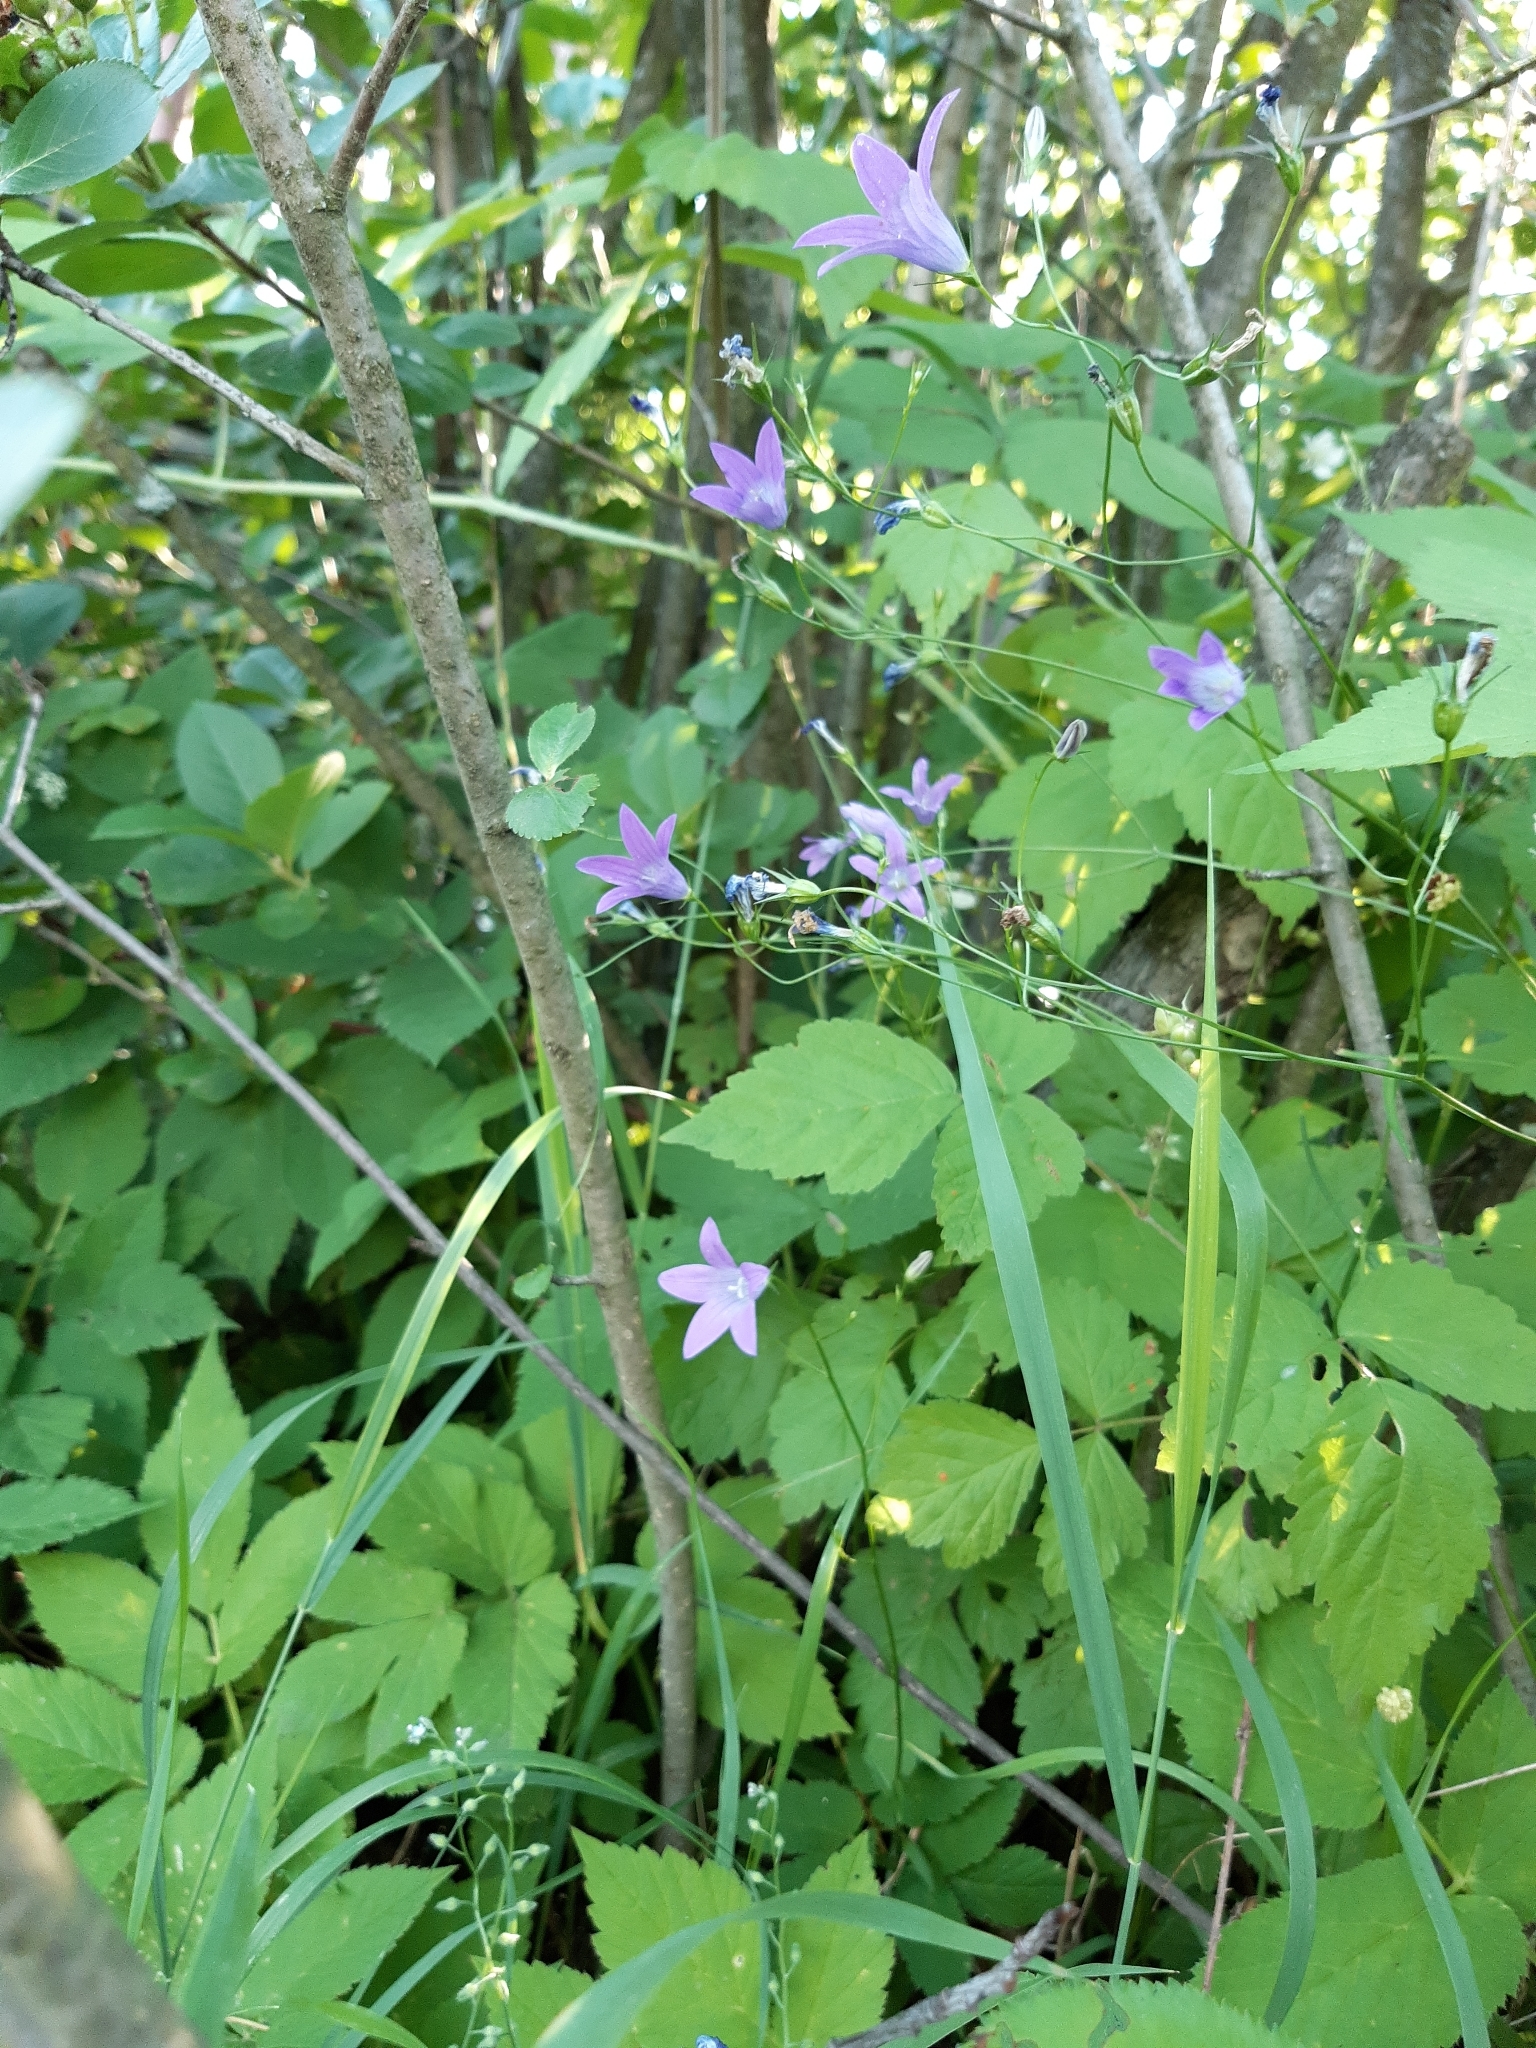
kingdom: Plantae
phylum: Tracheophyta
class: Magnoliopsida
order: Asterales
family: Campanulaceae
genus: Campanula
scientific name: Campanula patula
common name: Spreading bellflower
